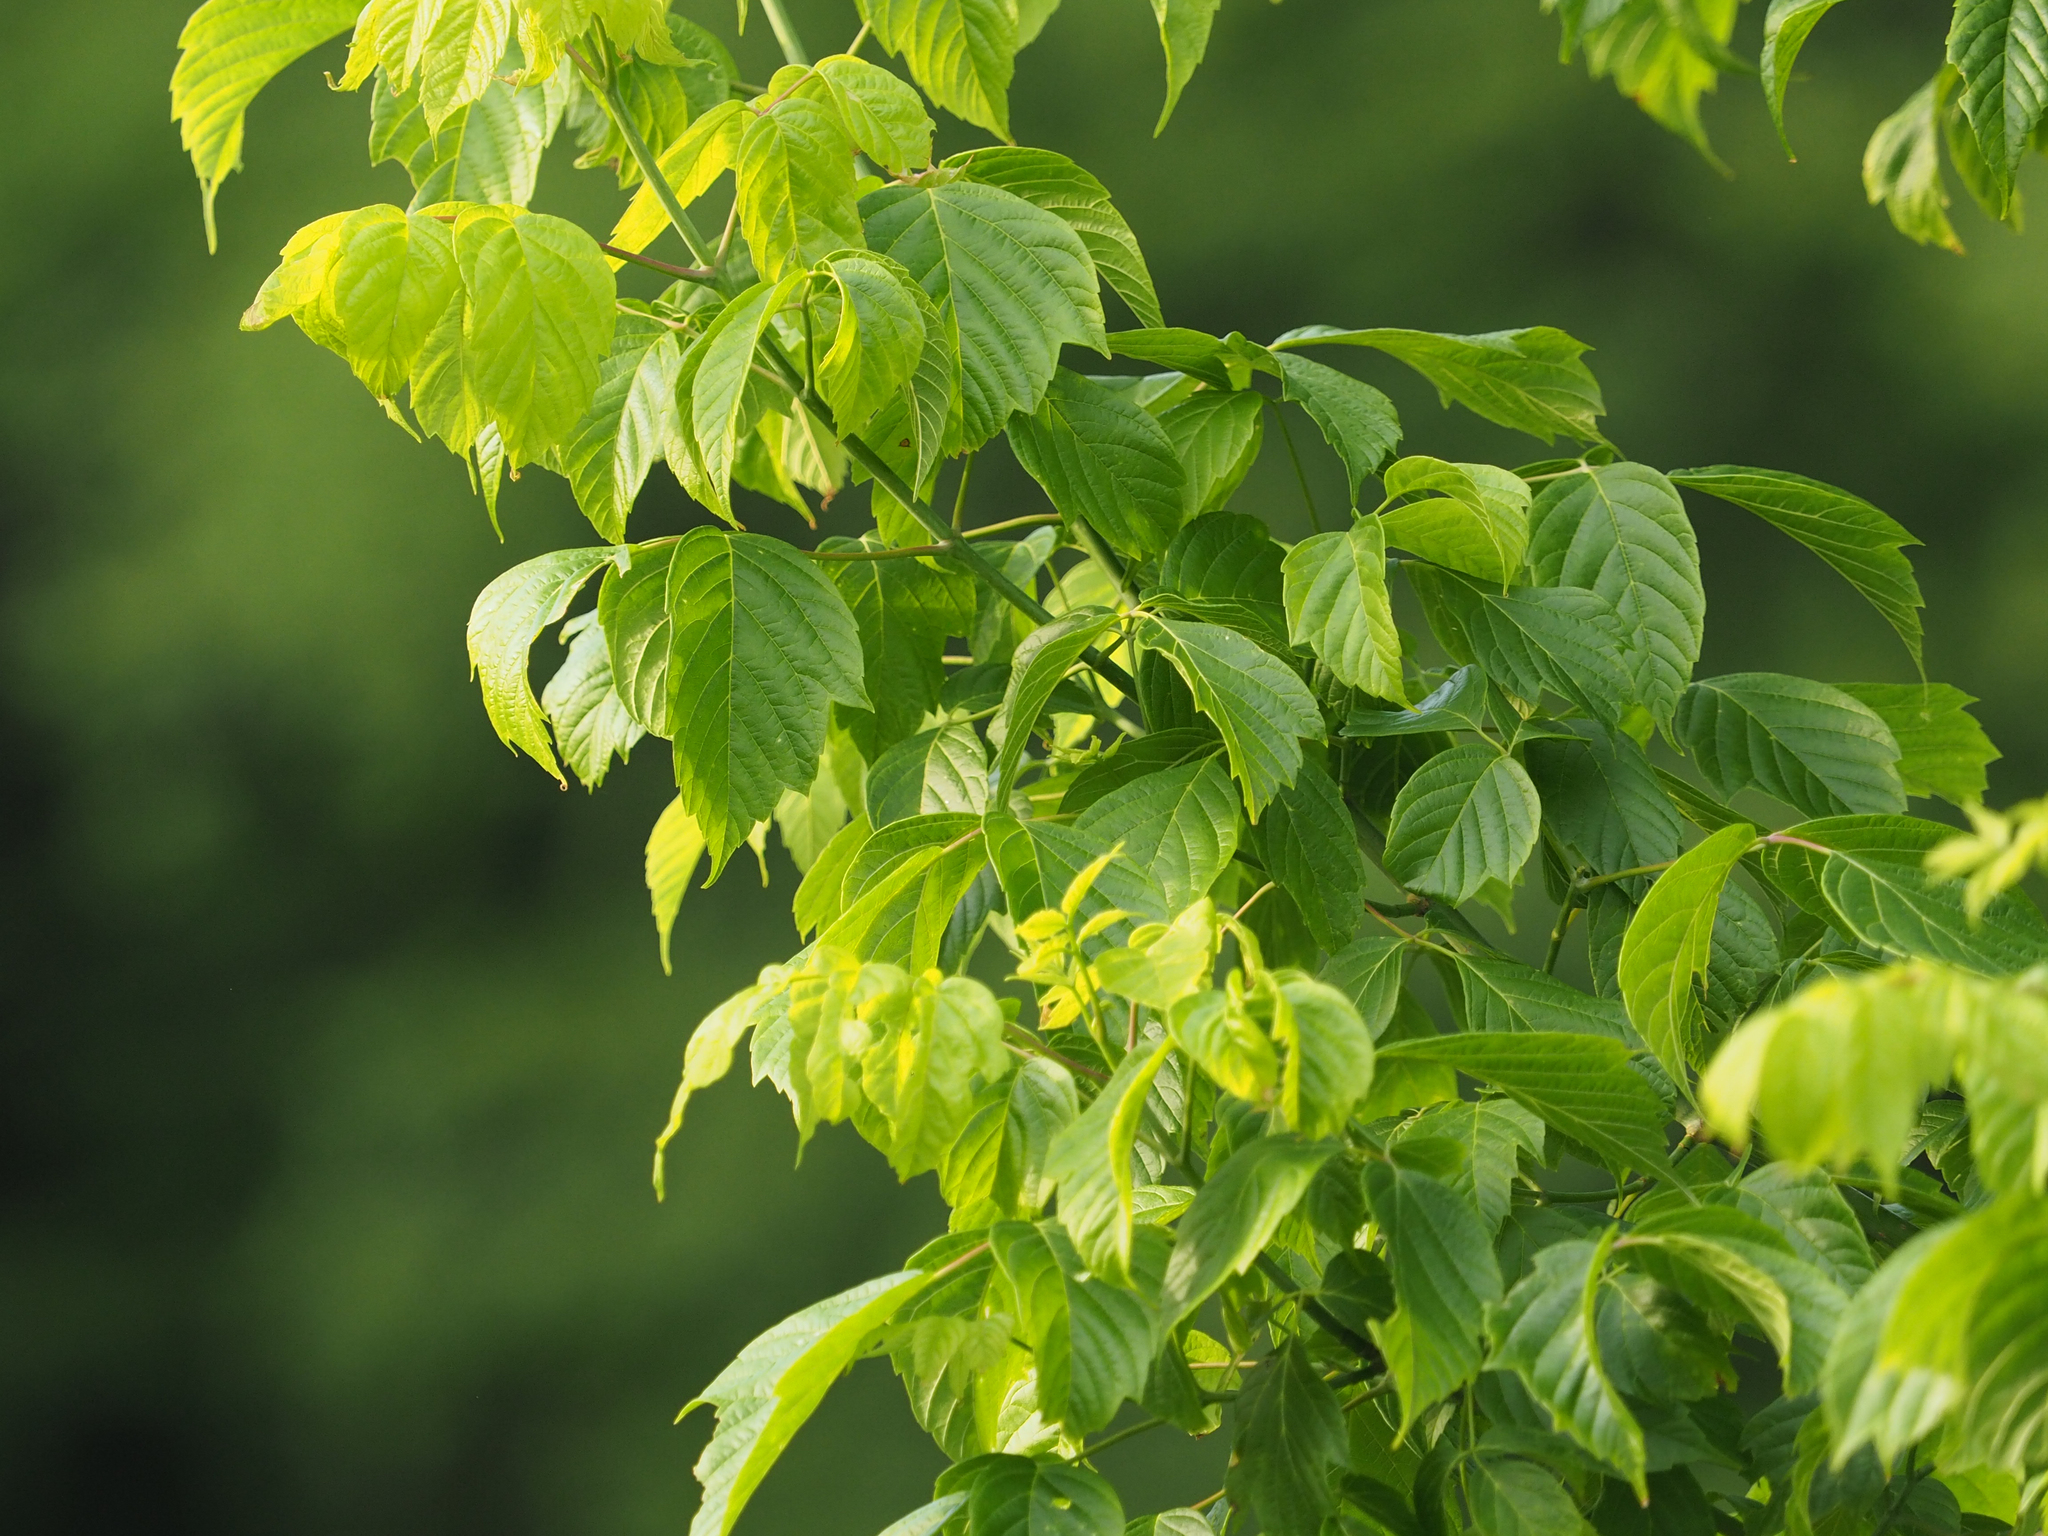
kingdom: Plantae
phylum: Tracheophyta
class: Magnoliopsida
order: Sapindales
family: Sapindaceae
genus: Acer
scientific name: Acer negundo
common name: Ashleaf maple
